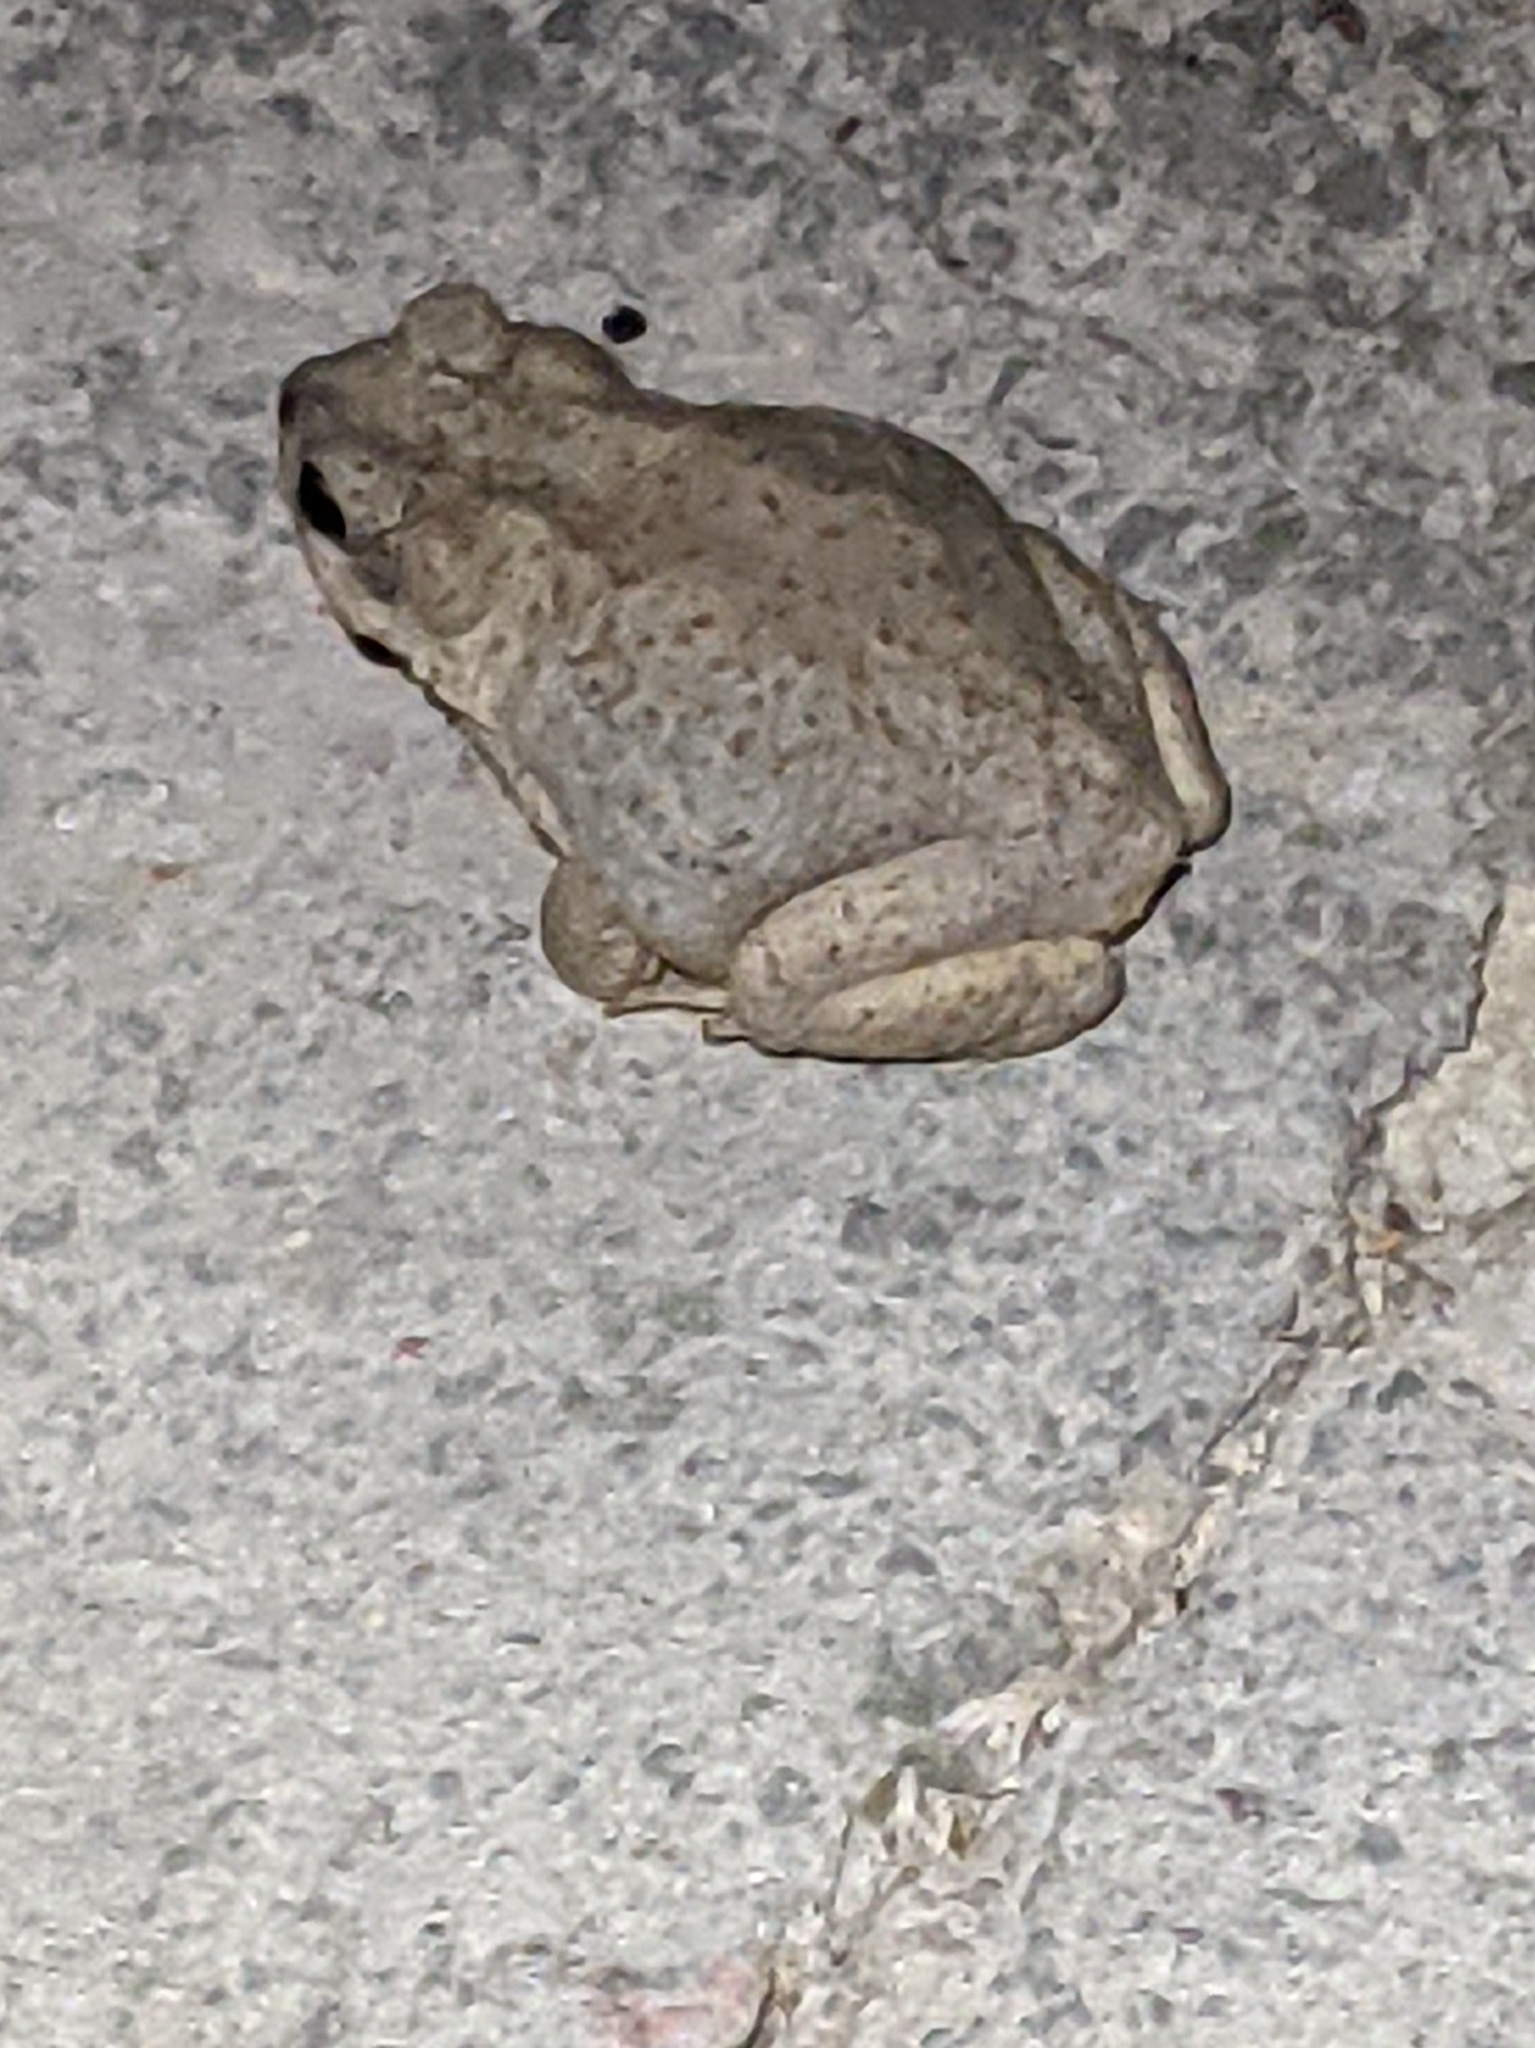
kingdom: Animalia
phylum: Chordata
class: Amphibia
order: Anura
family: Bufonidae
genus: Anaxyrus
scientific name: Anaxyrus punctatus
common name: Red-spotted toad
